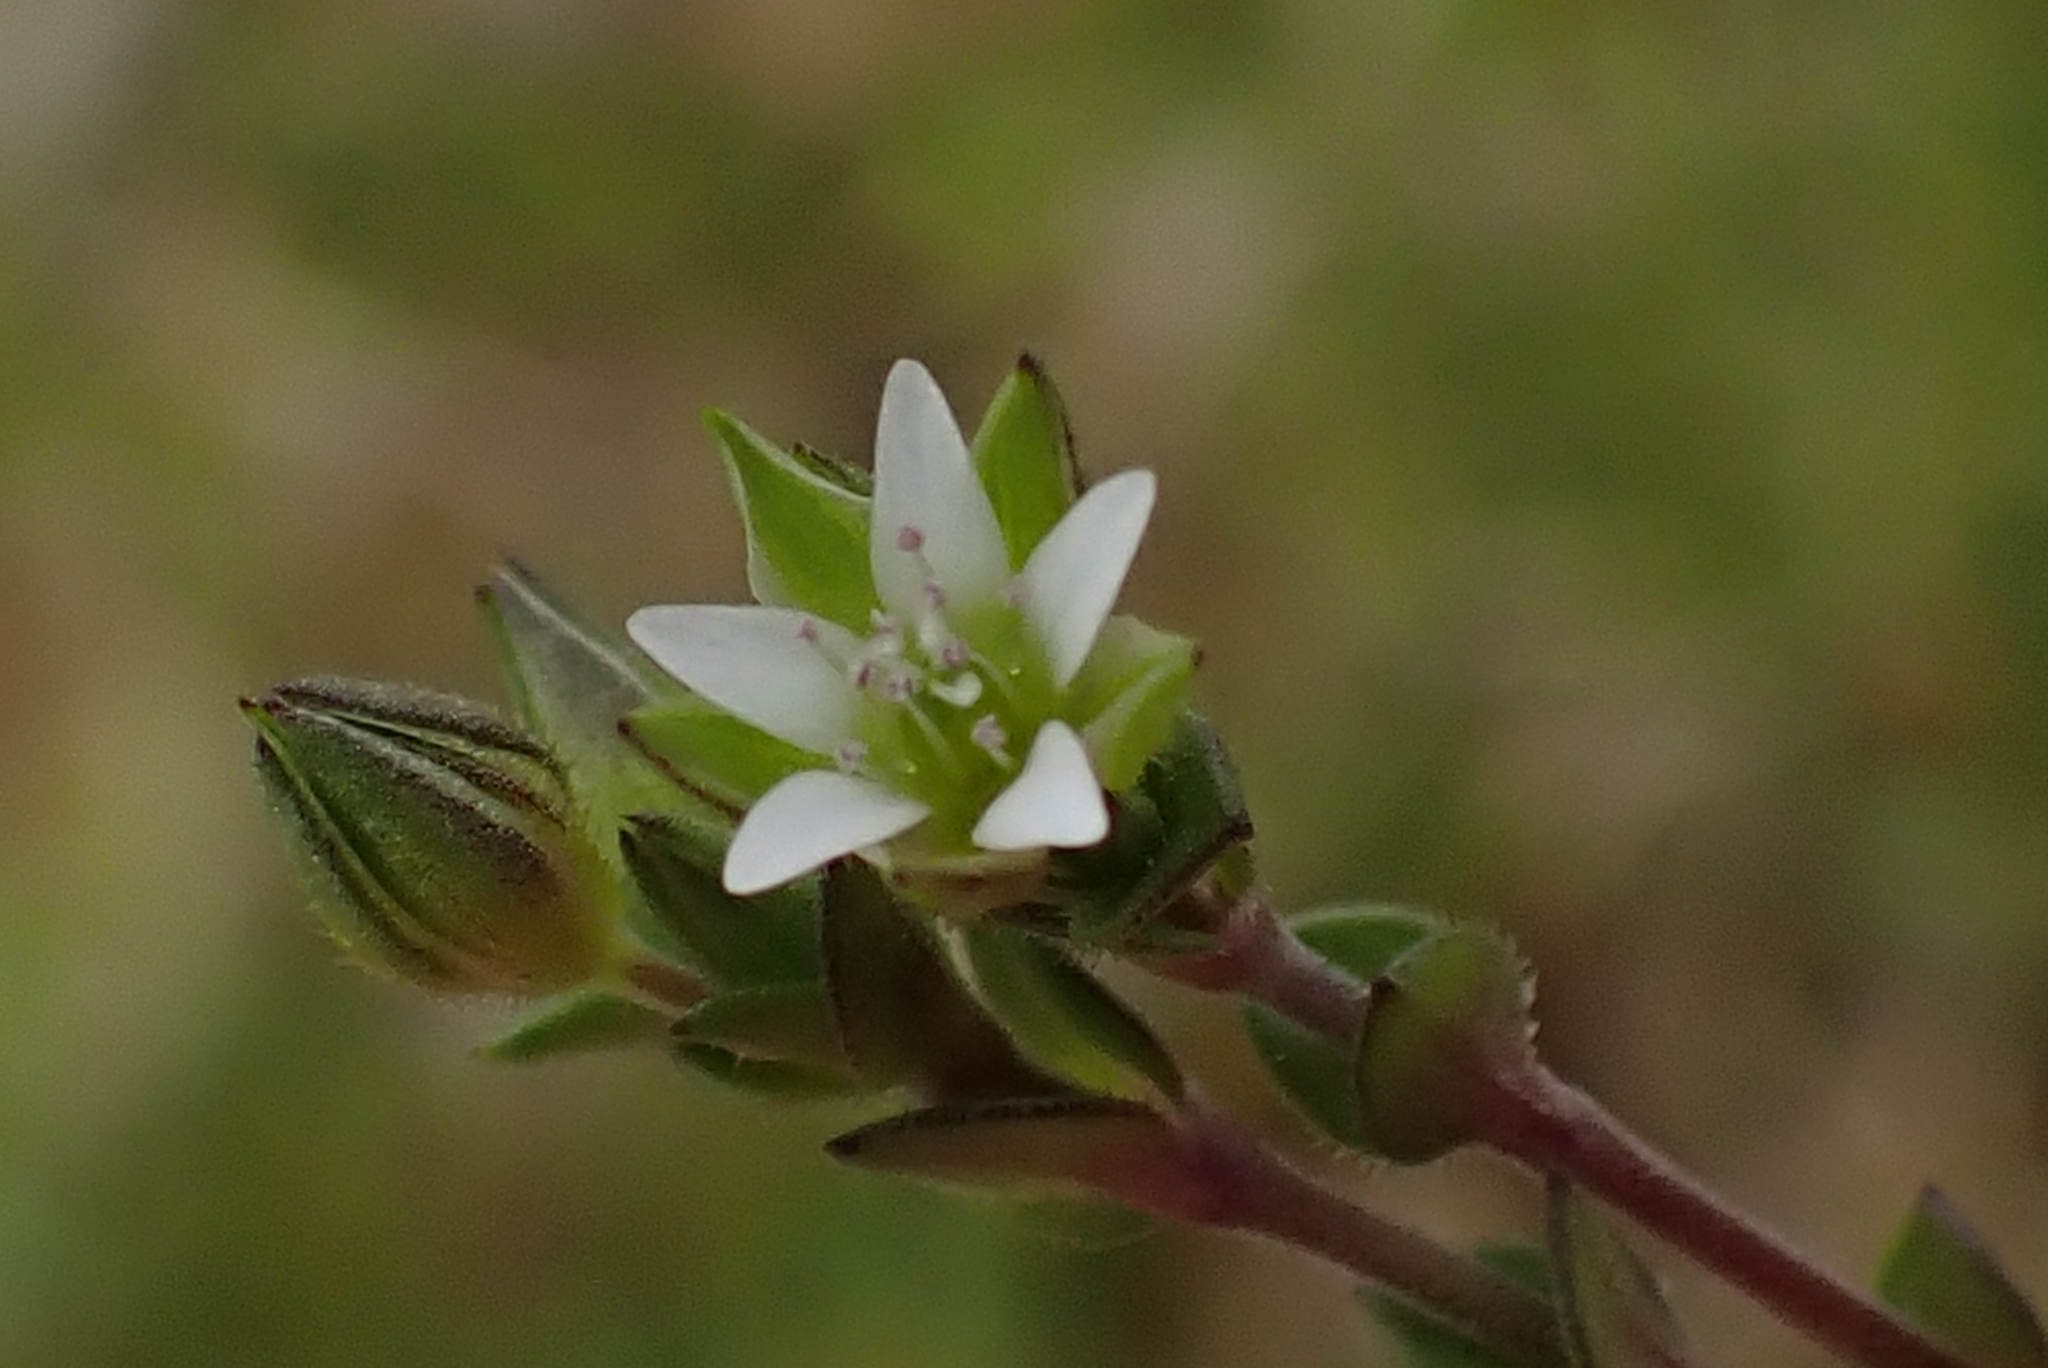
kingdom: Plantae
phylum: Tracheophyta
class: Magnoliopsida
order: Caryophyllales
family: Caryophyllaceae
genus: Arenaria
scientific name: Arenaria serpyllifolia
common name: Thyme-leaved sandwort
